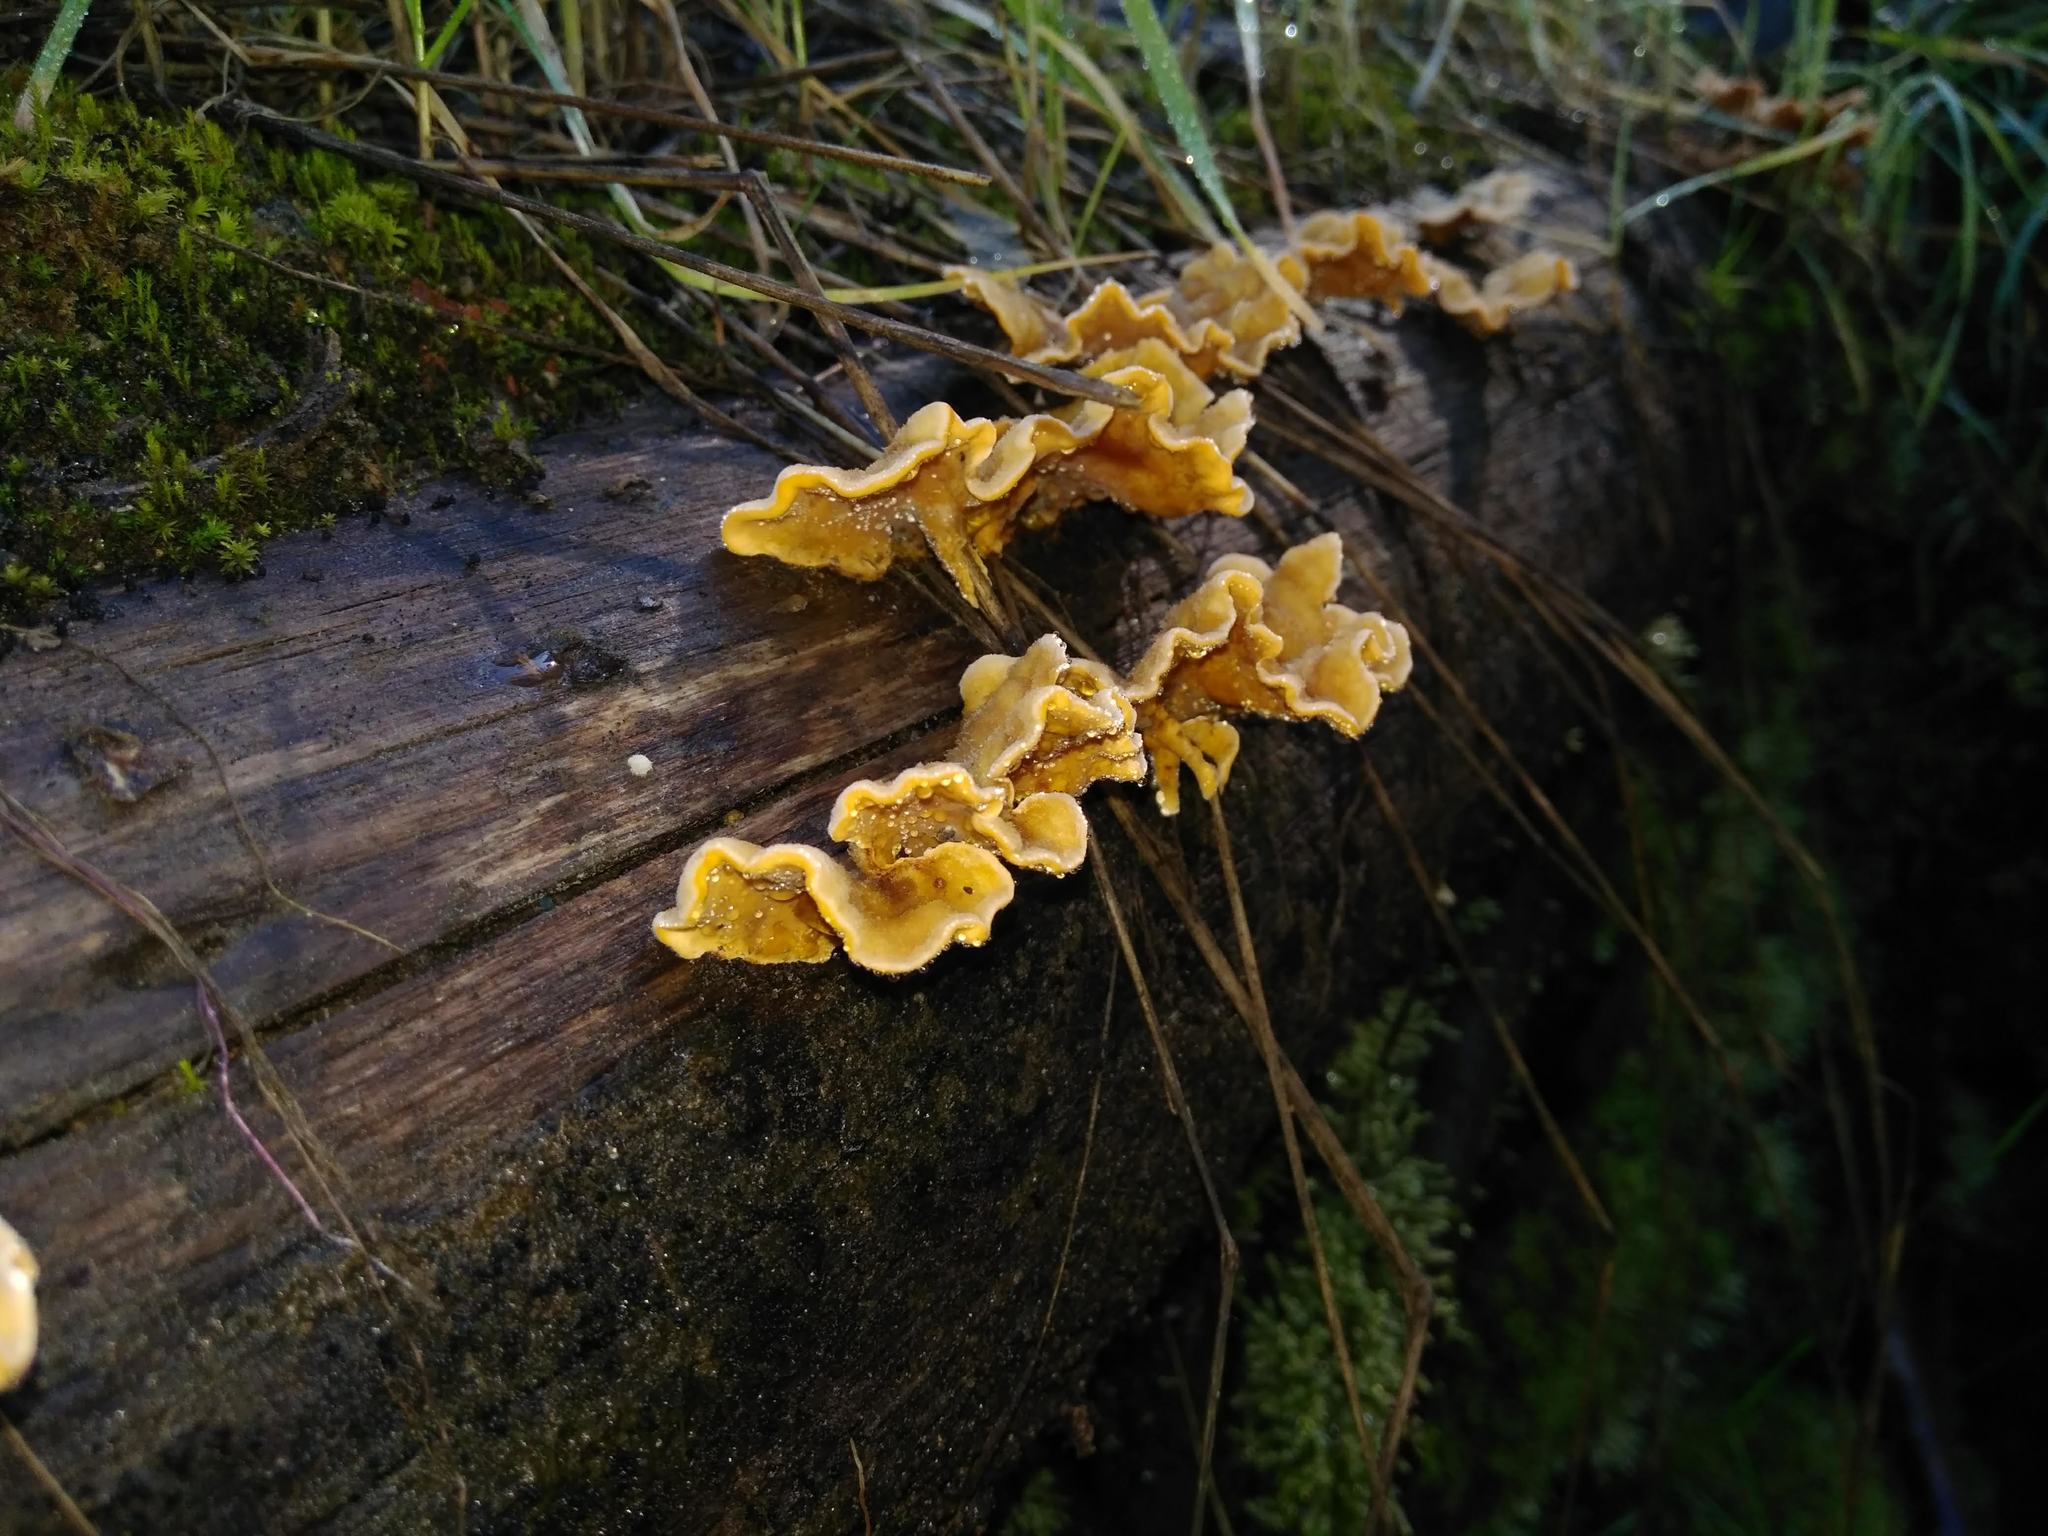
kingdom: Fungi
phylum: Basidiomycota
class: Agaricomycetes
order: Russulales
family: Stereaceae
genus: Stereum
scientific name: Stereum hirsutum
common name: Hairy curtain crust
